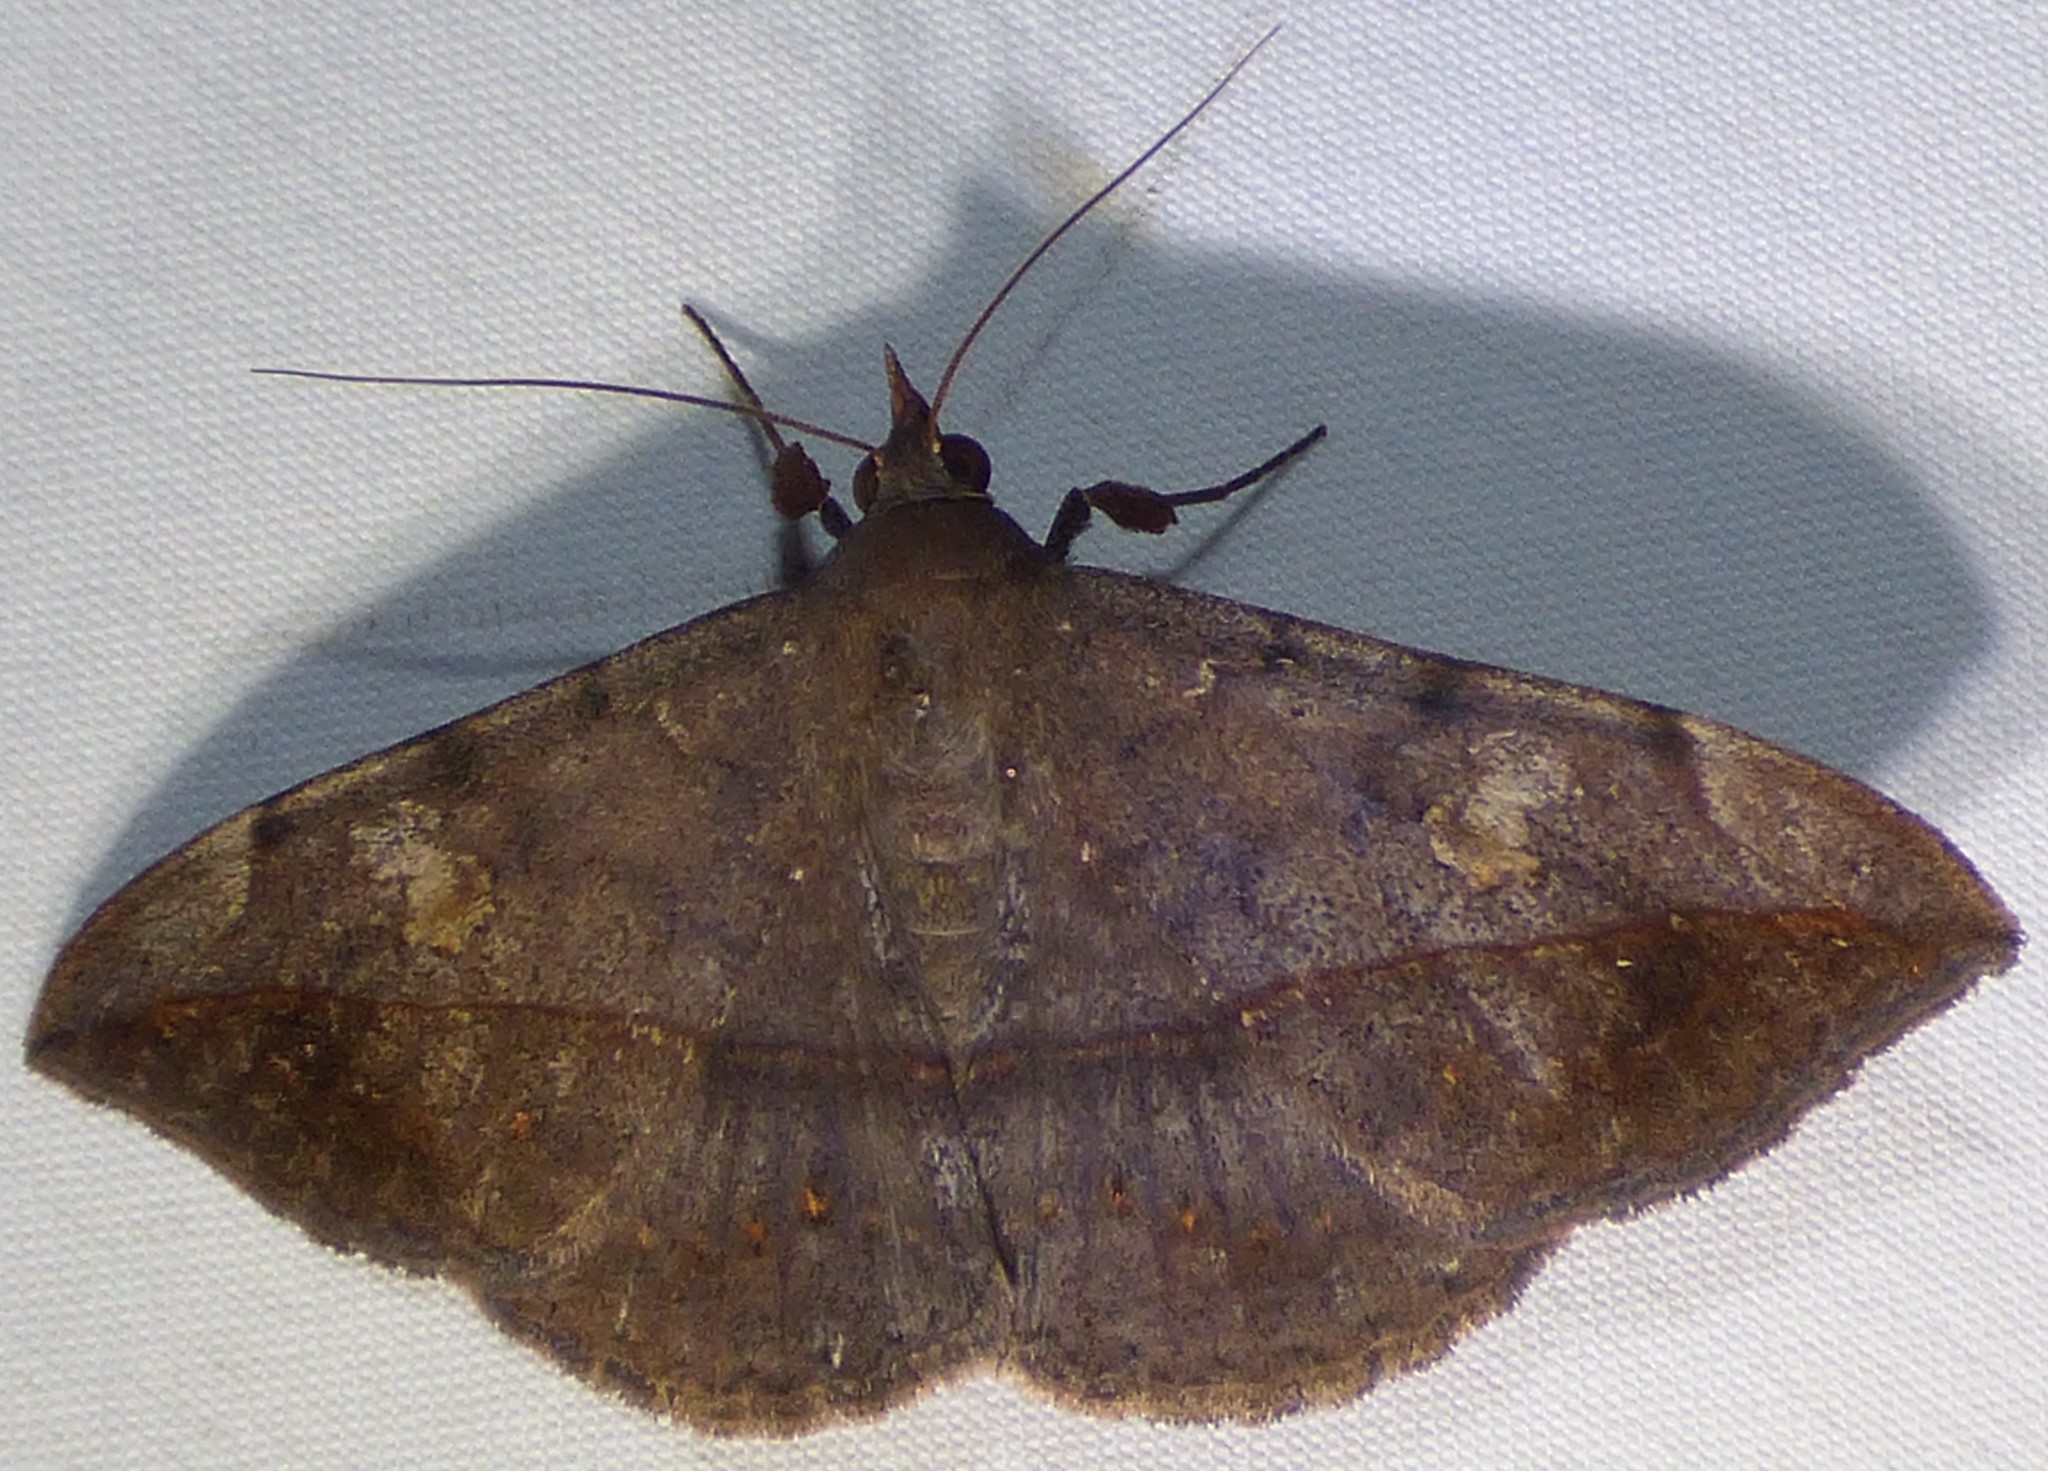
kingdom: Animalia
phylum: Arthropoda
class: Insecta
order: Lepidoptera
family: Erebidae
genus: Anticarsia
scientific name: Anticarsia gemmatalis
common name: Cutworm moth
